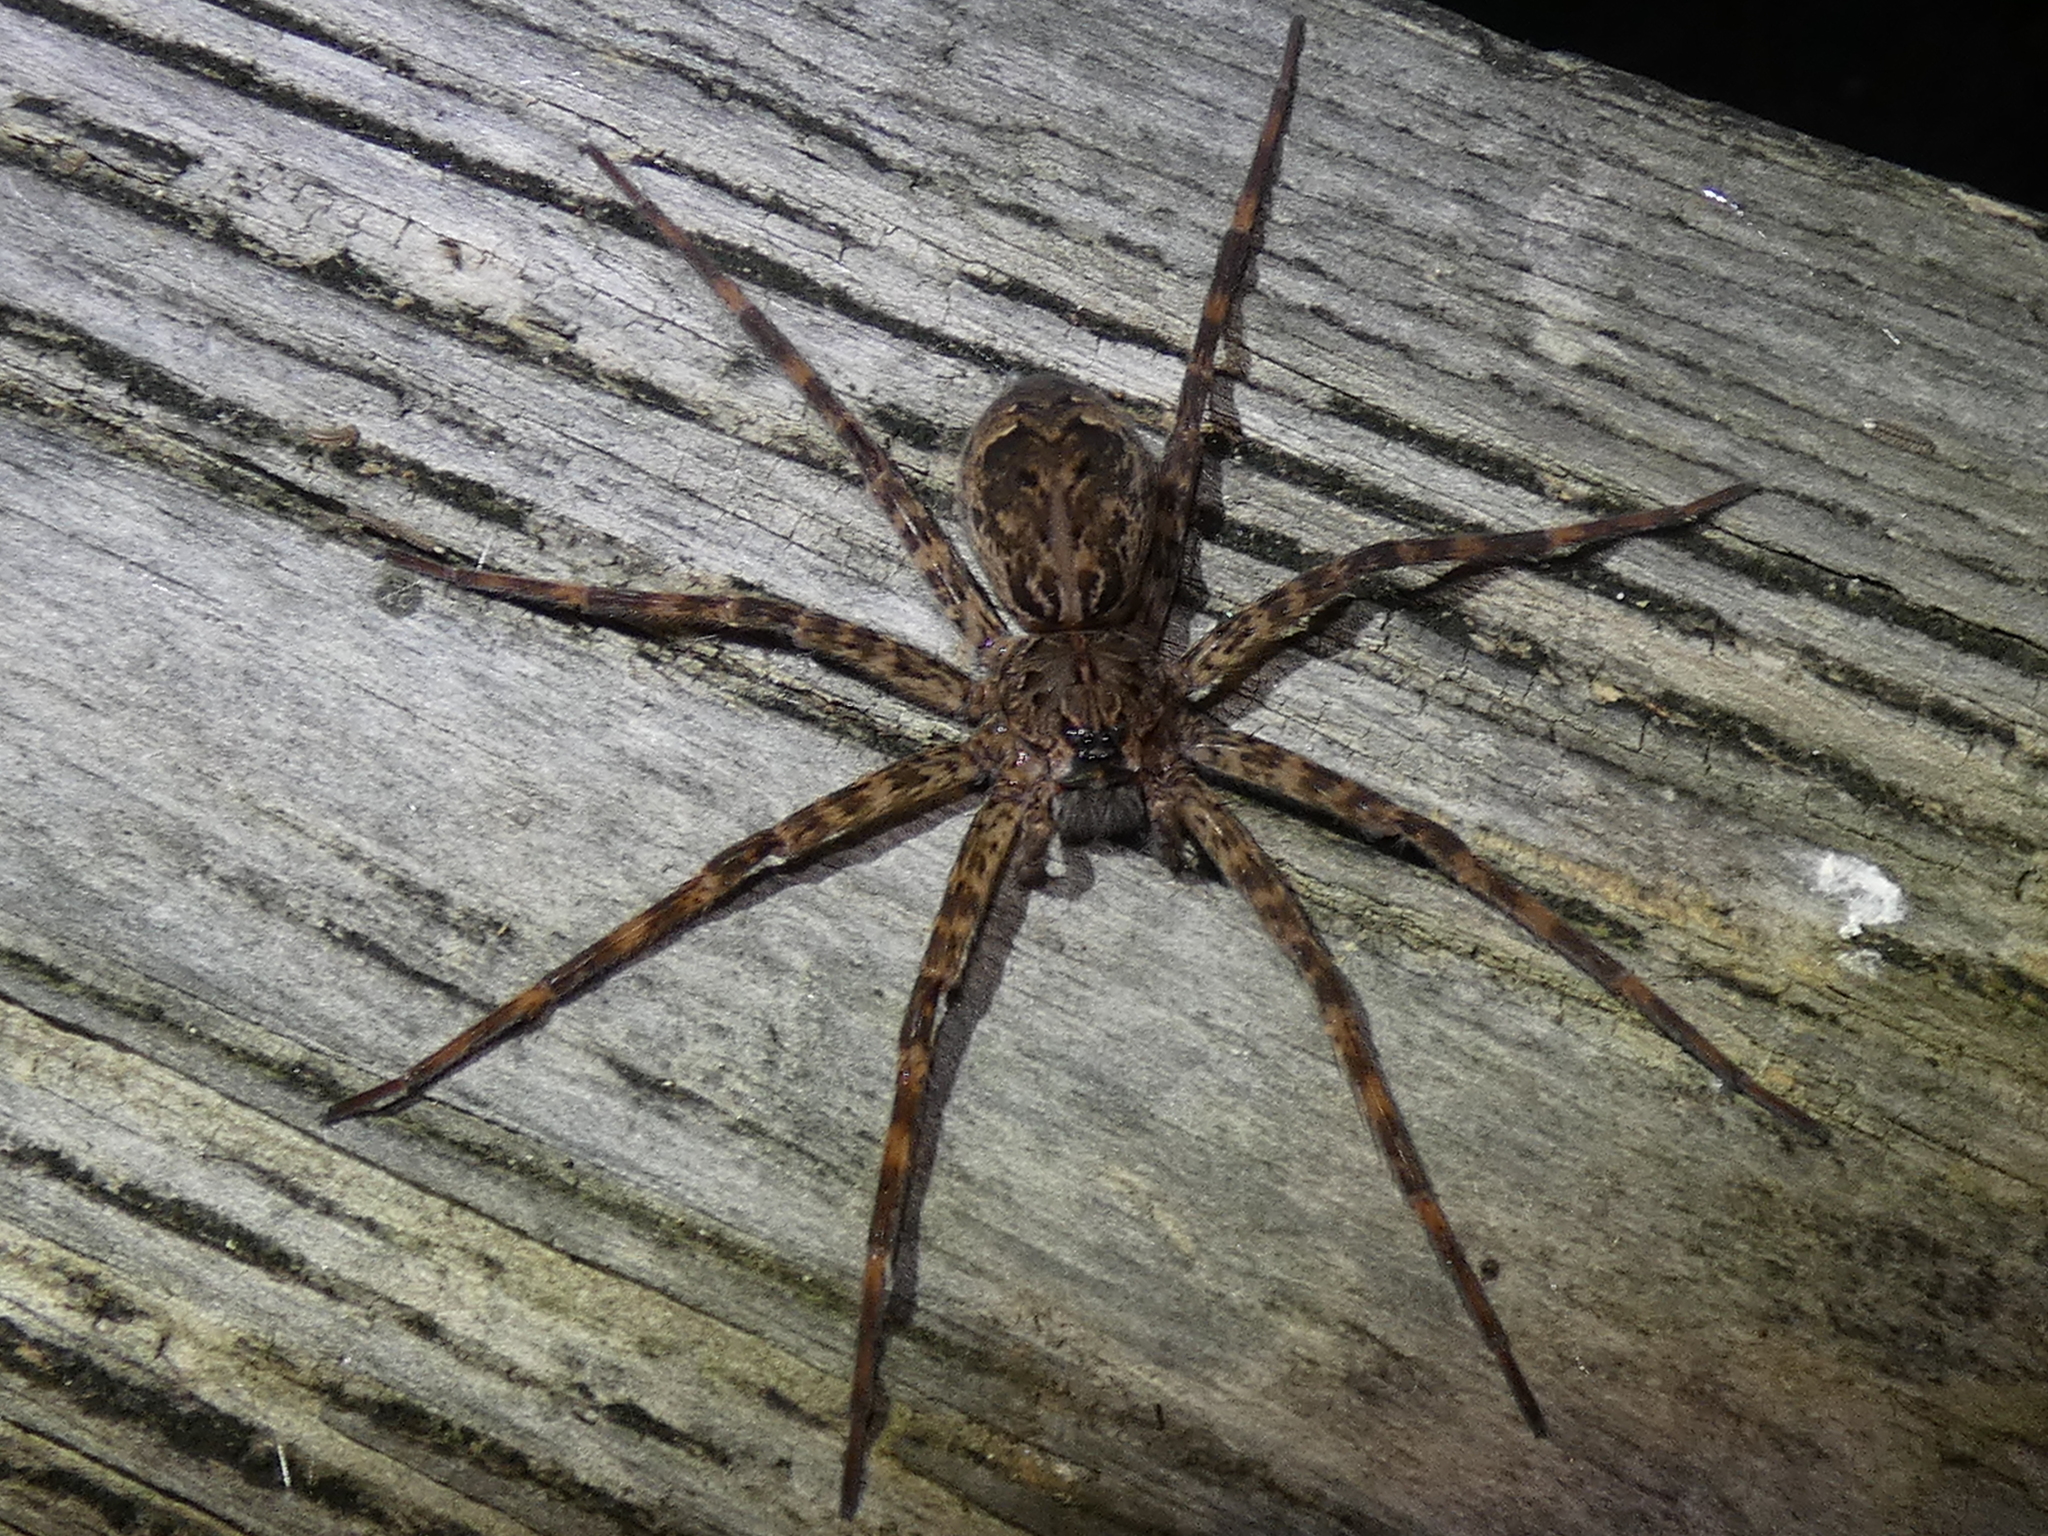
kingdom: Animalia
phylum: Arthropoda
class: Arachnida
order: Araneae
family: Pisauridae
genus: Dolomedes
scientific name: Dolomedes tenebrosus
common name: Dark fishing spider
